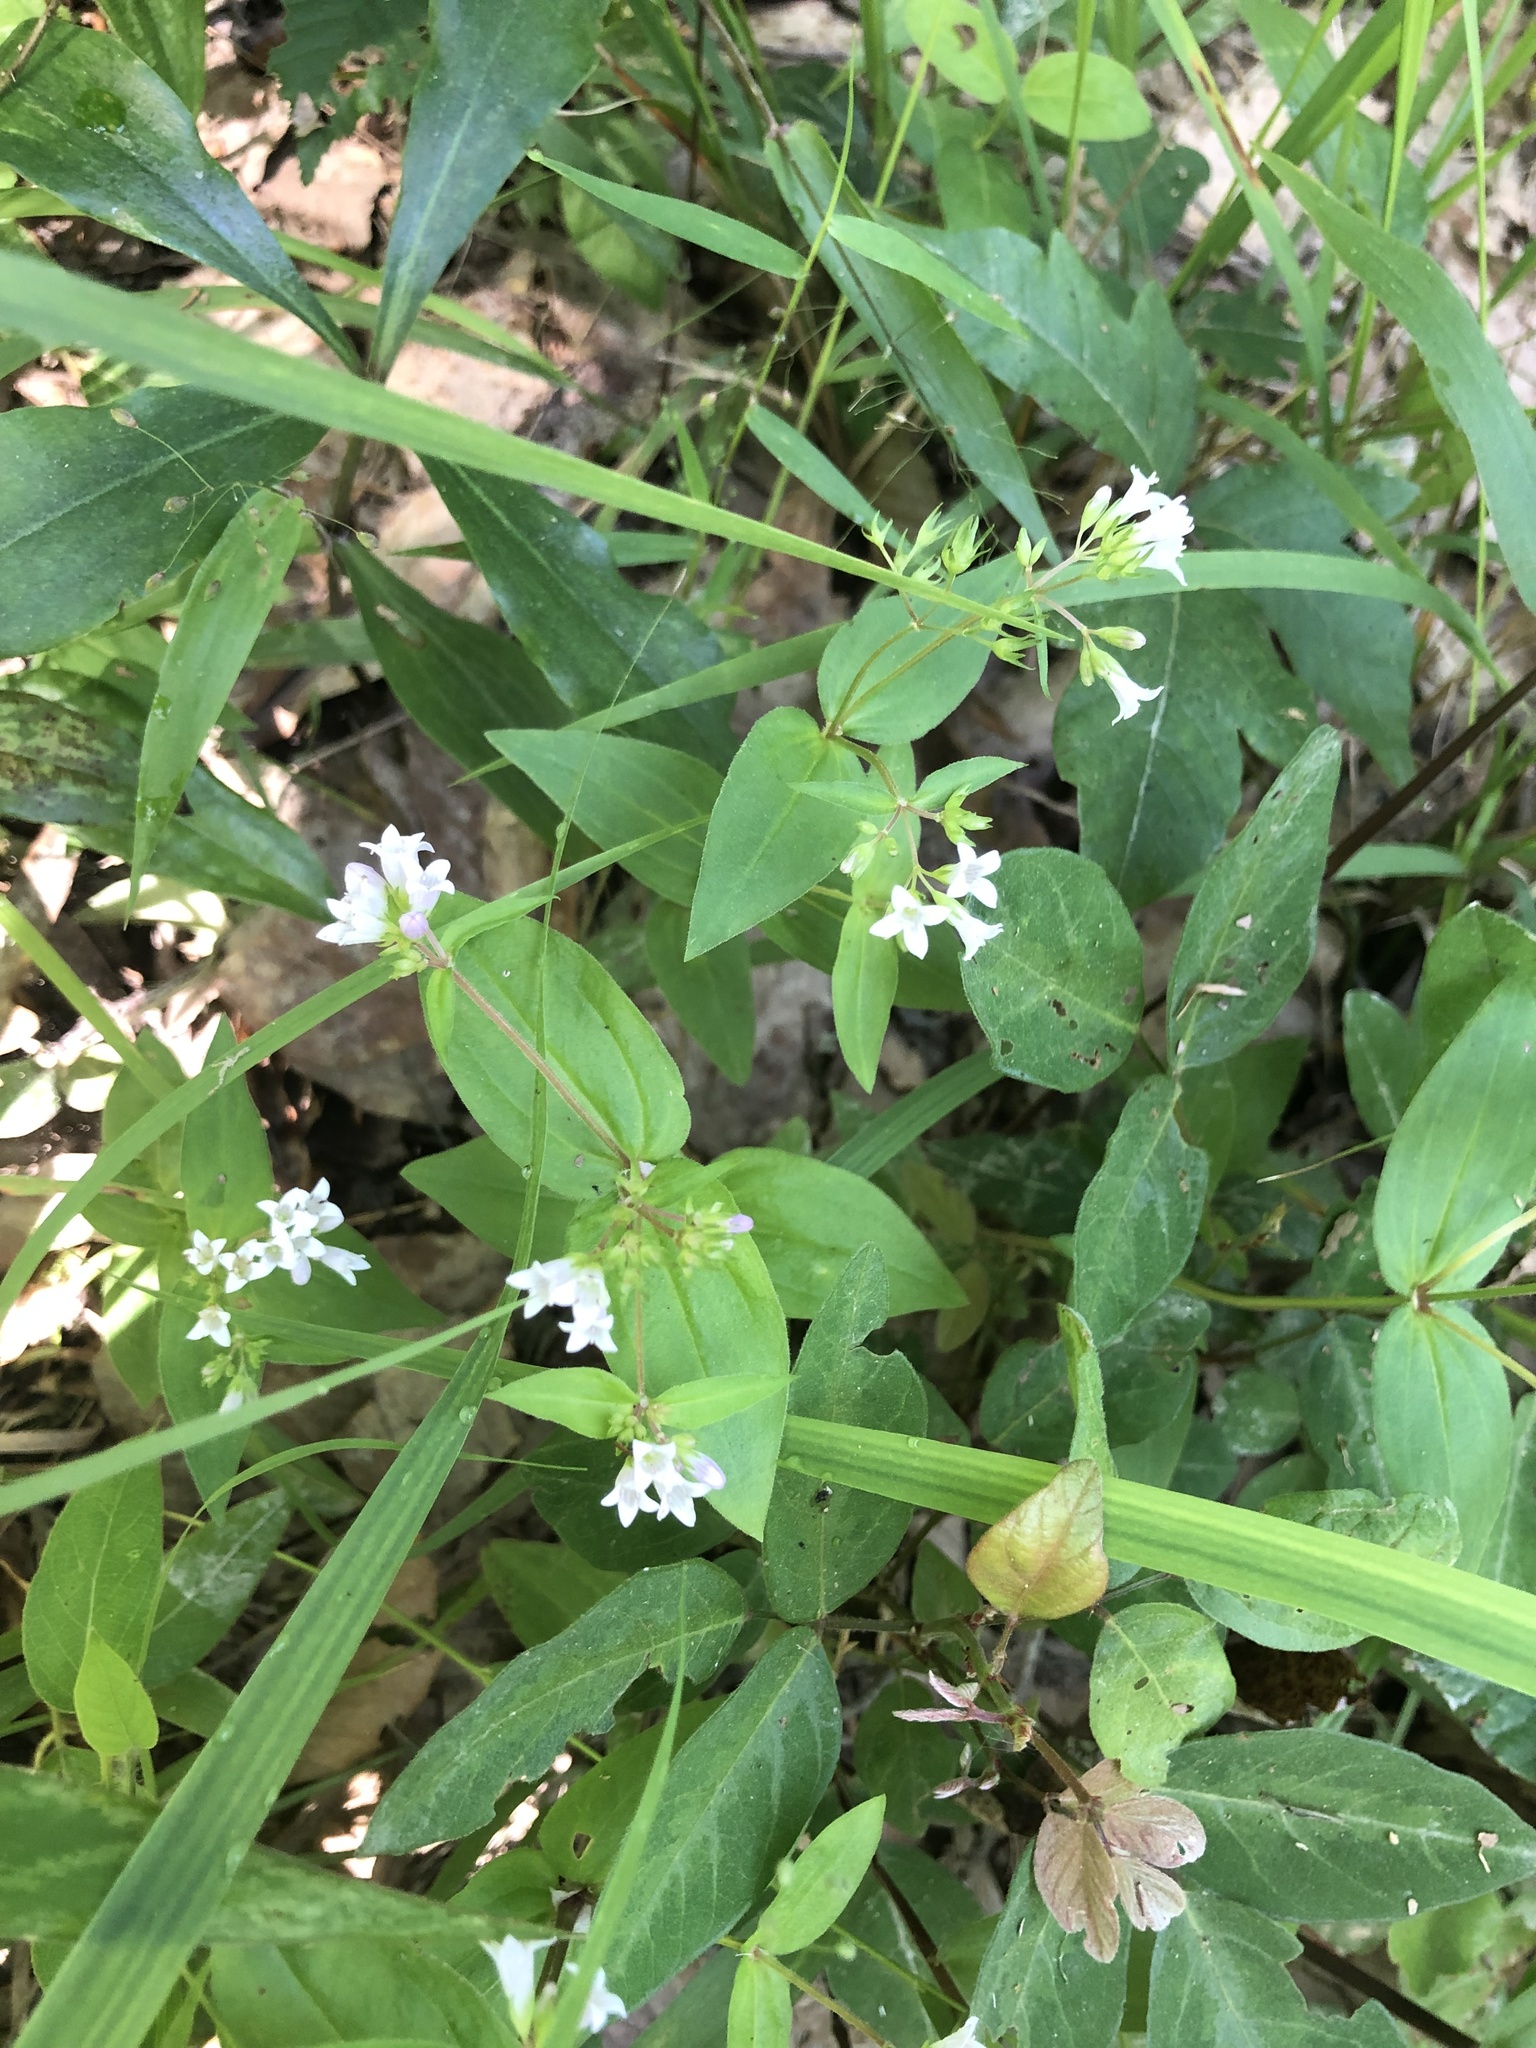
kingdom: Plantae
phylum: Tracheophyta
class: Magnoliopsida
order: Gentianales
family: Rubiaceae
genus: Houstonia
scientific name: Houstonia purpurea
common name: Summer bluet
